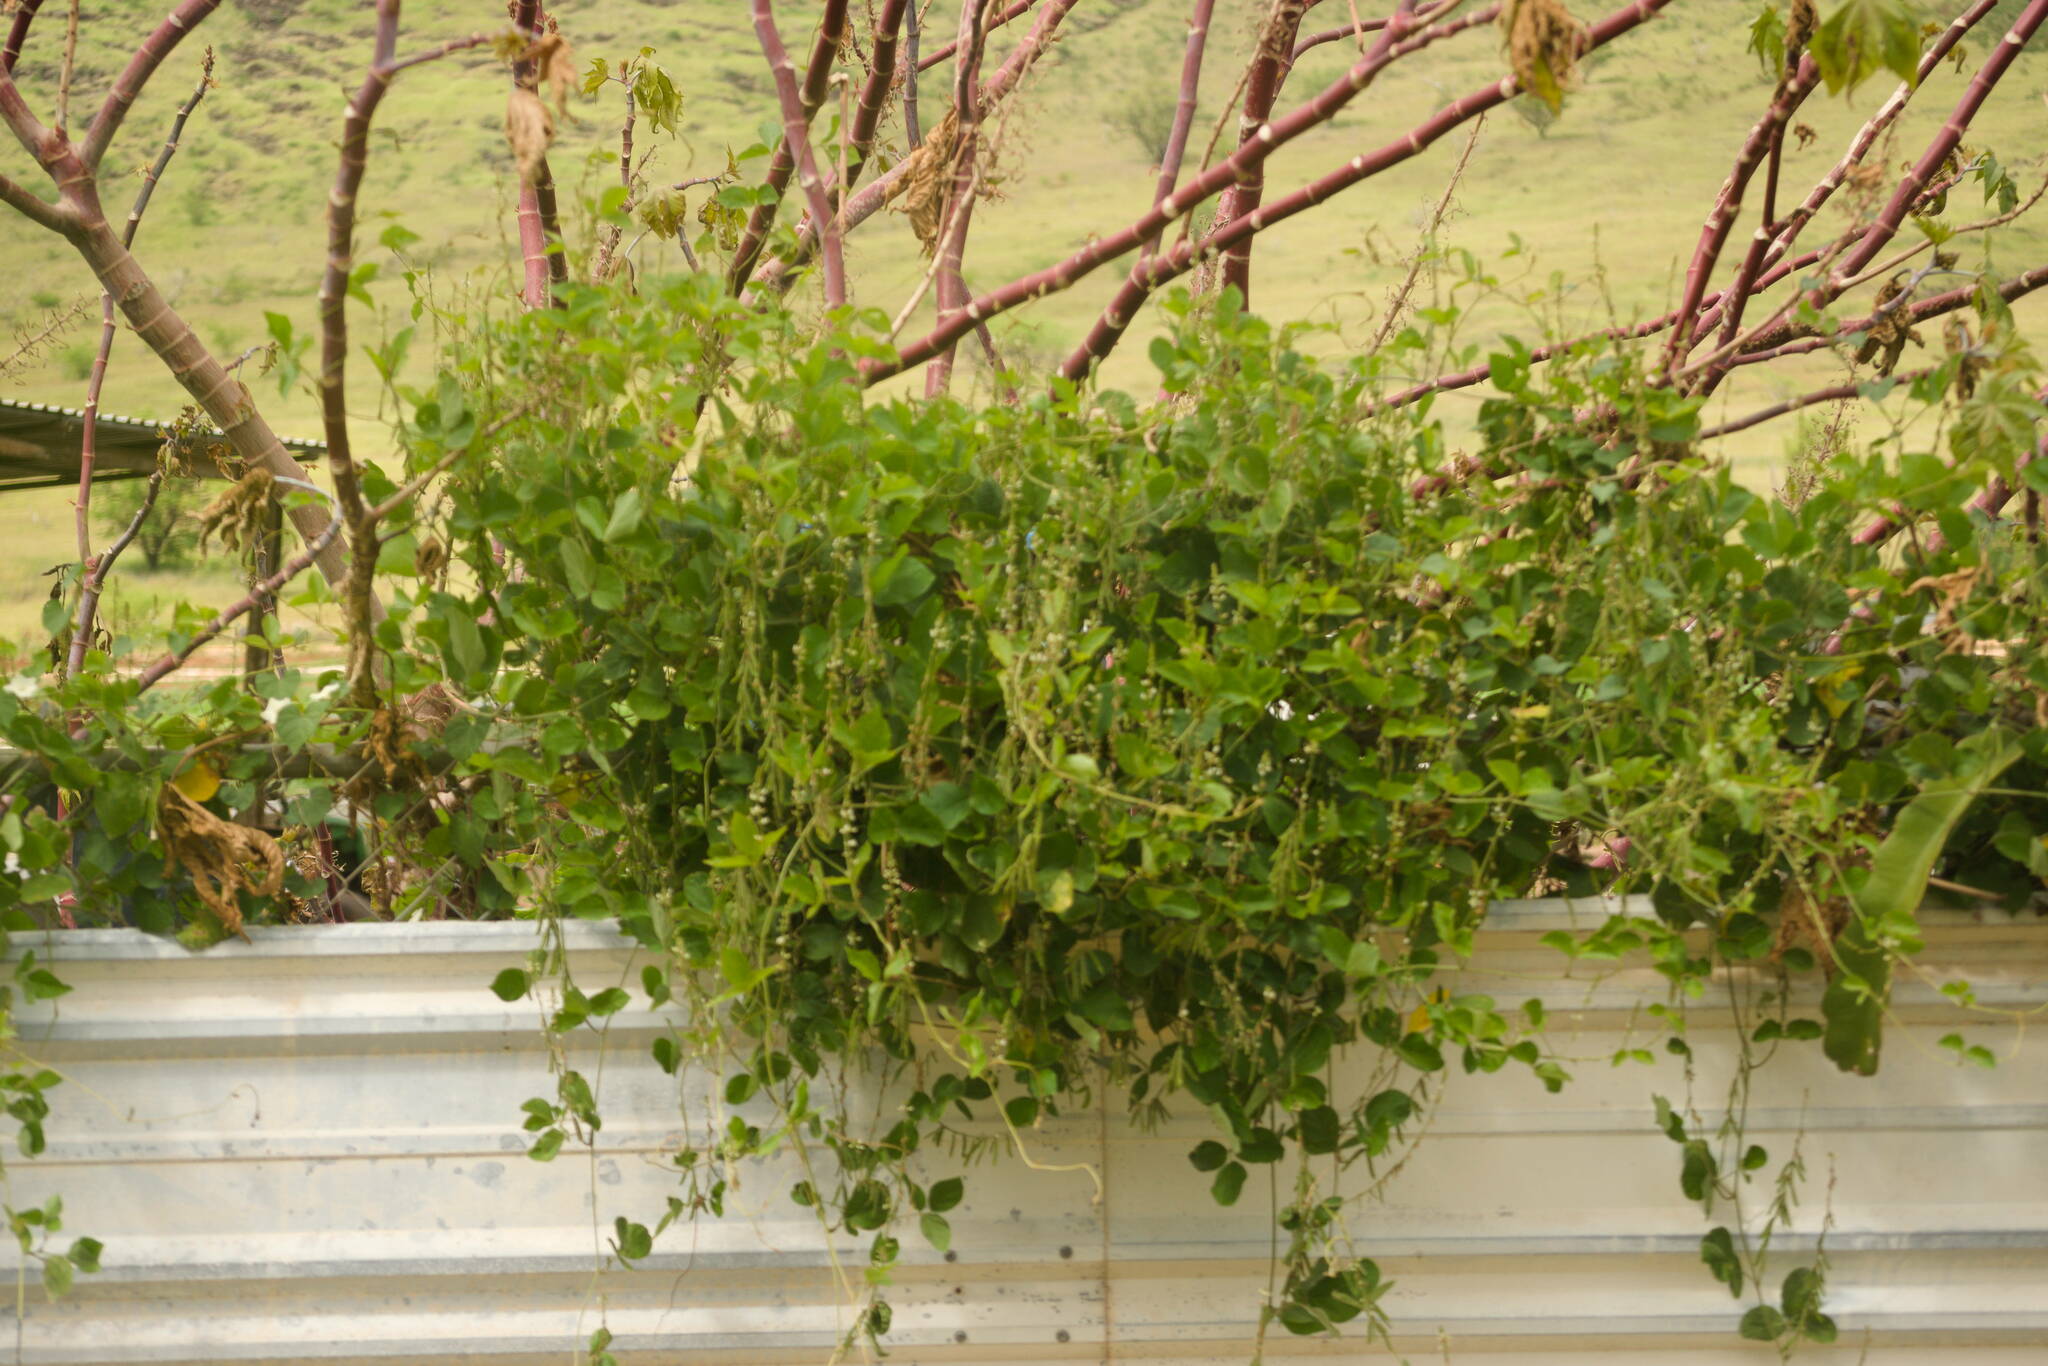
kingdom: Plantae
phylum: Tracheophyta
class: Magnoliopsida
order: Fabales
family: Fabaceae
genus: Neonotonia
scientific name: Neonotonia wightii
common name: Perennial soybean
